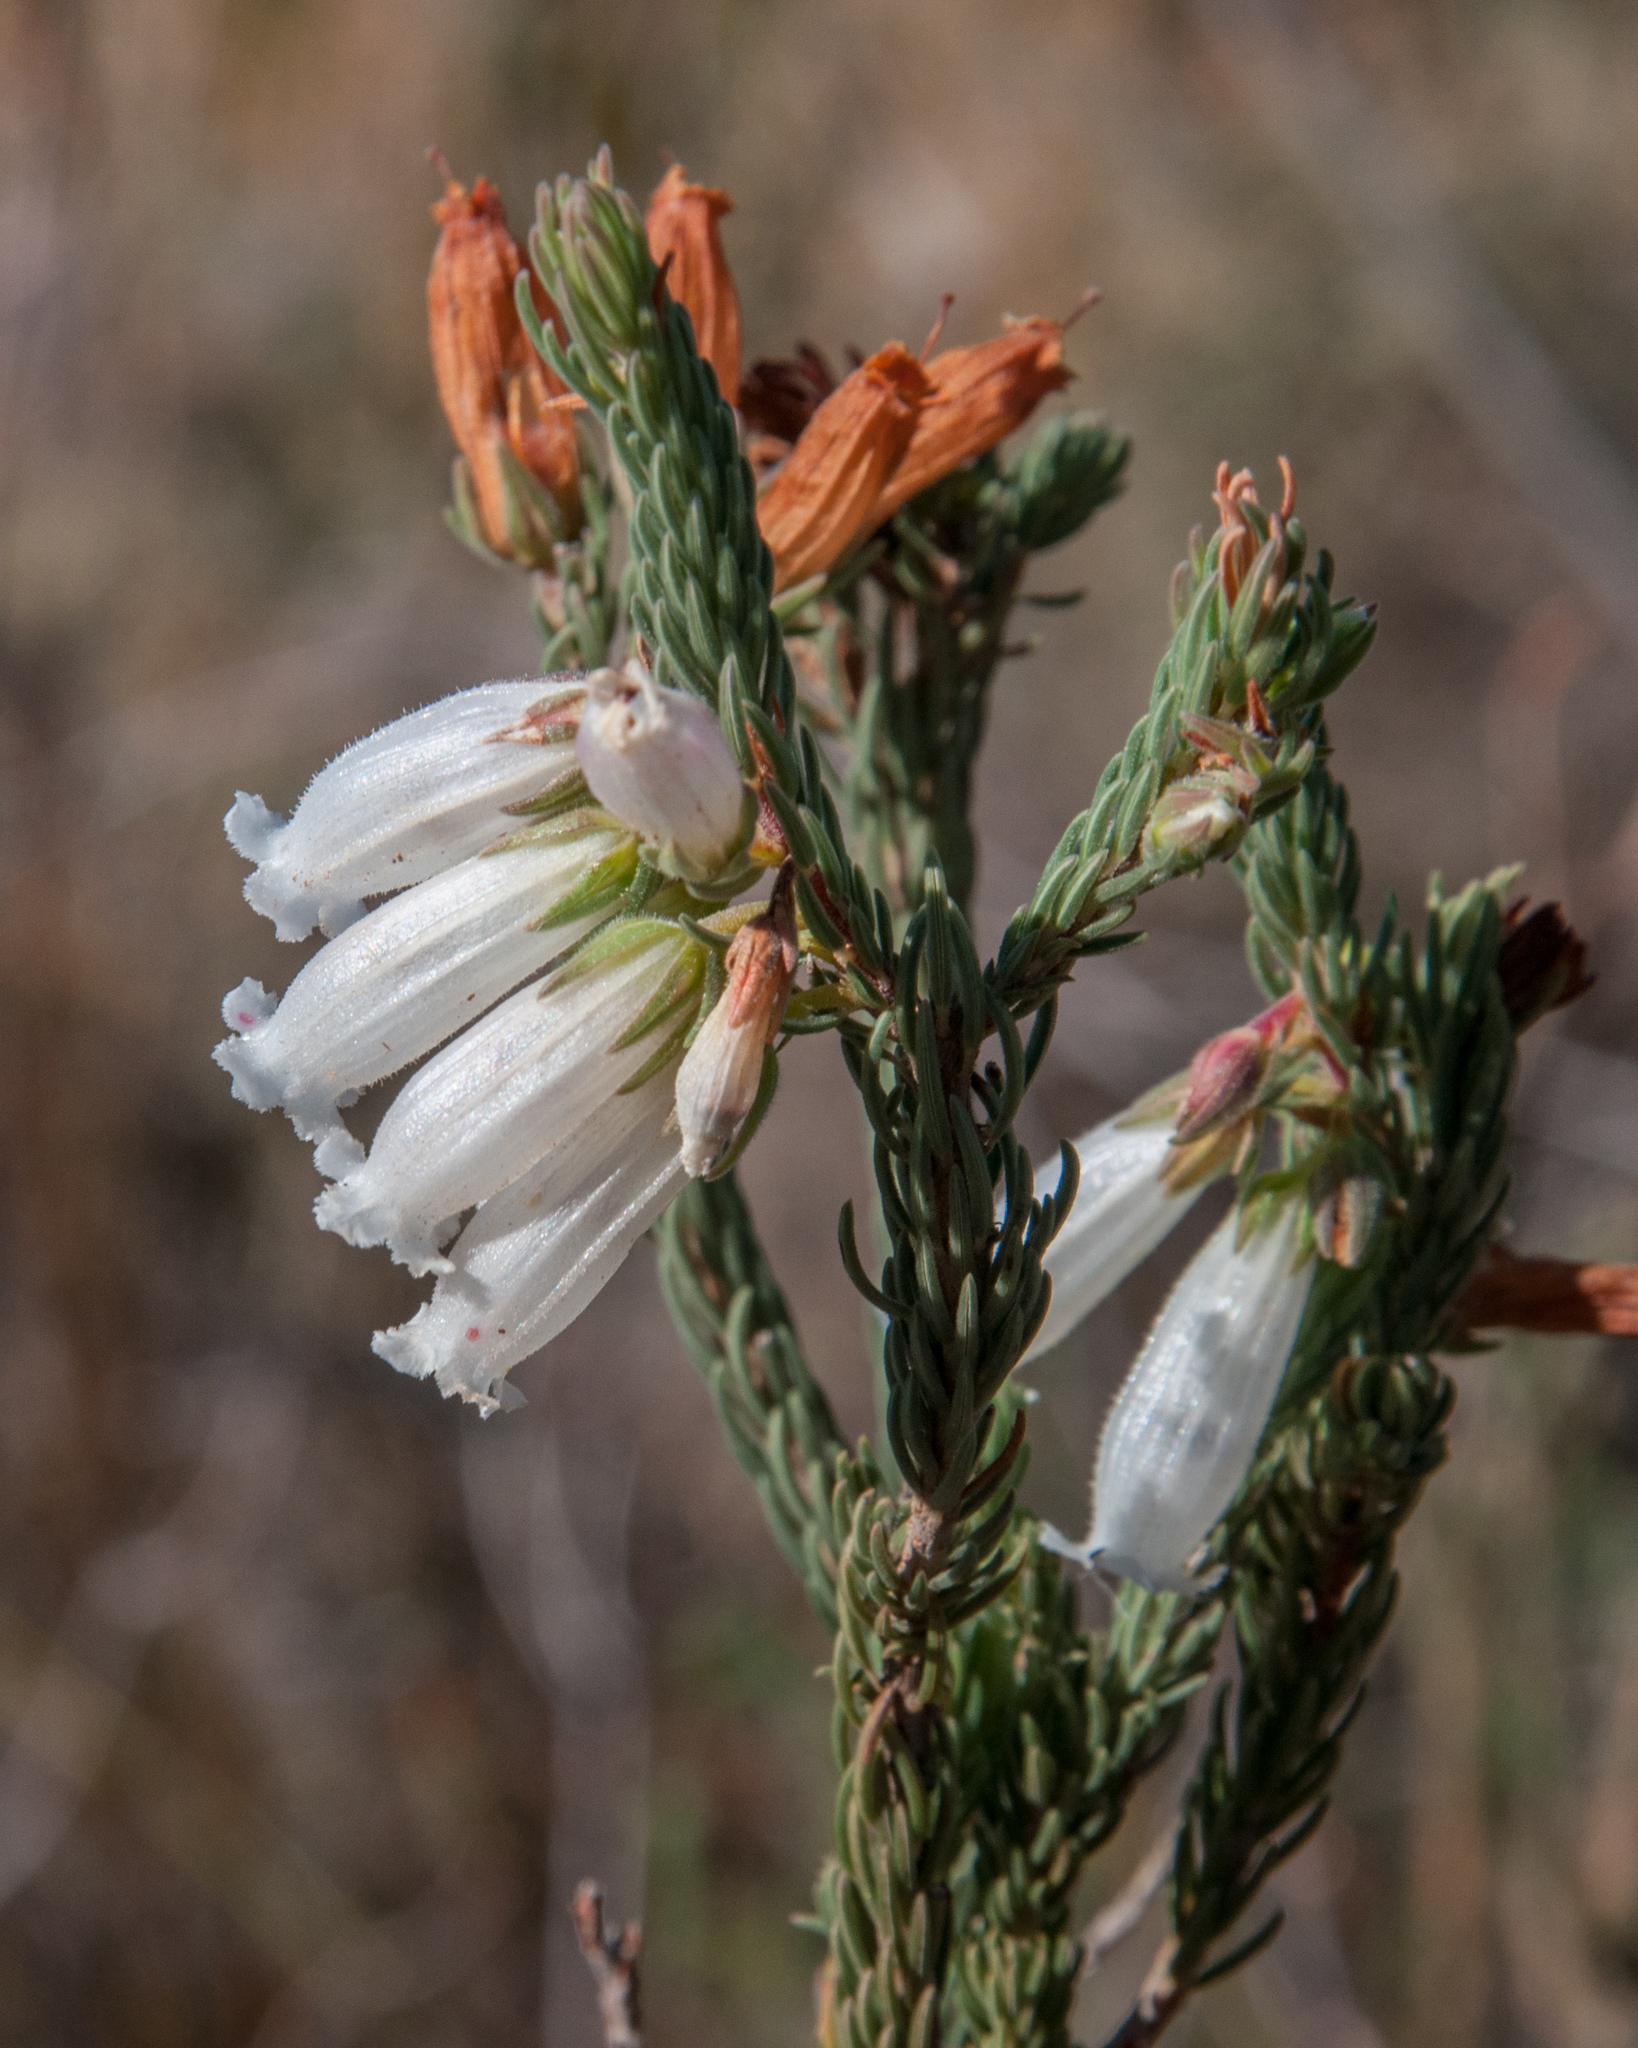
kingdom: Plantae
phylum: Tracheophyta
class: Magnoliopsida
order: Ericales
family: Ericaceae
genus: Erica
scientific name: Erica viscaria
